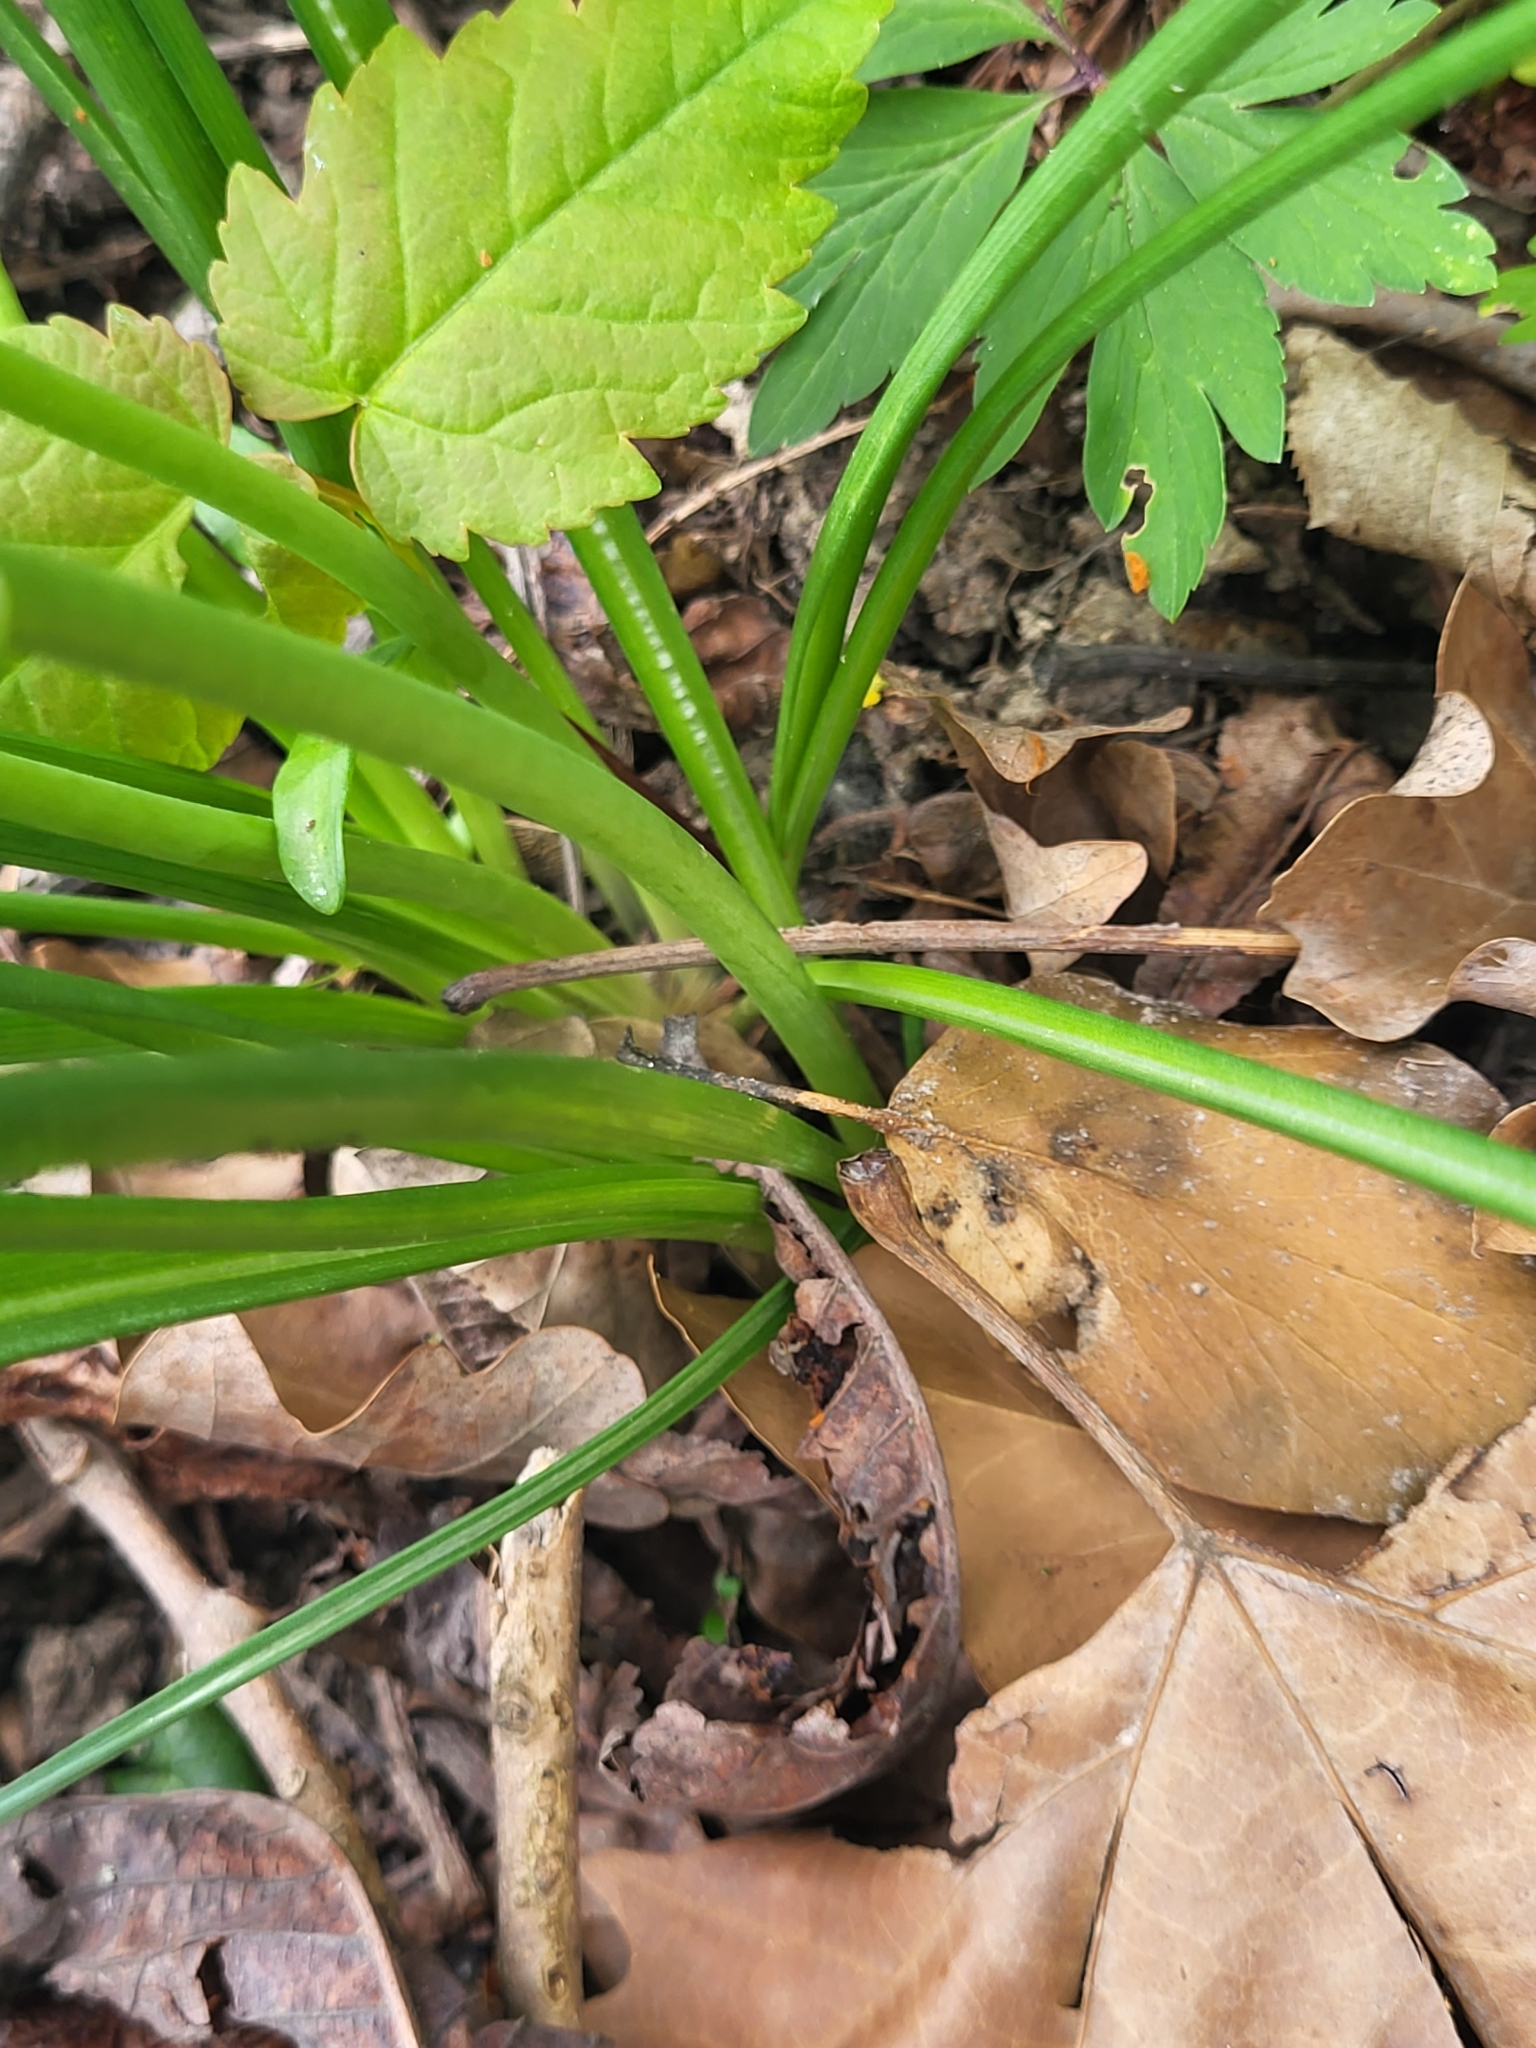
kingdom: Plantae
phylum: Tracheophyta
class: Liliopsida
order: Asparagales
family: Asparagaceae
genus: Ornithogalum
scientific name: Ornithogalum umbellatum
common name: Garden star-of-bethlehem
